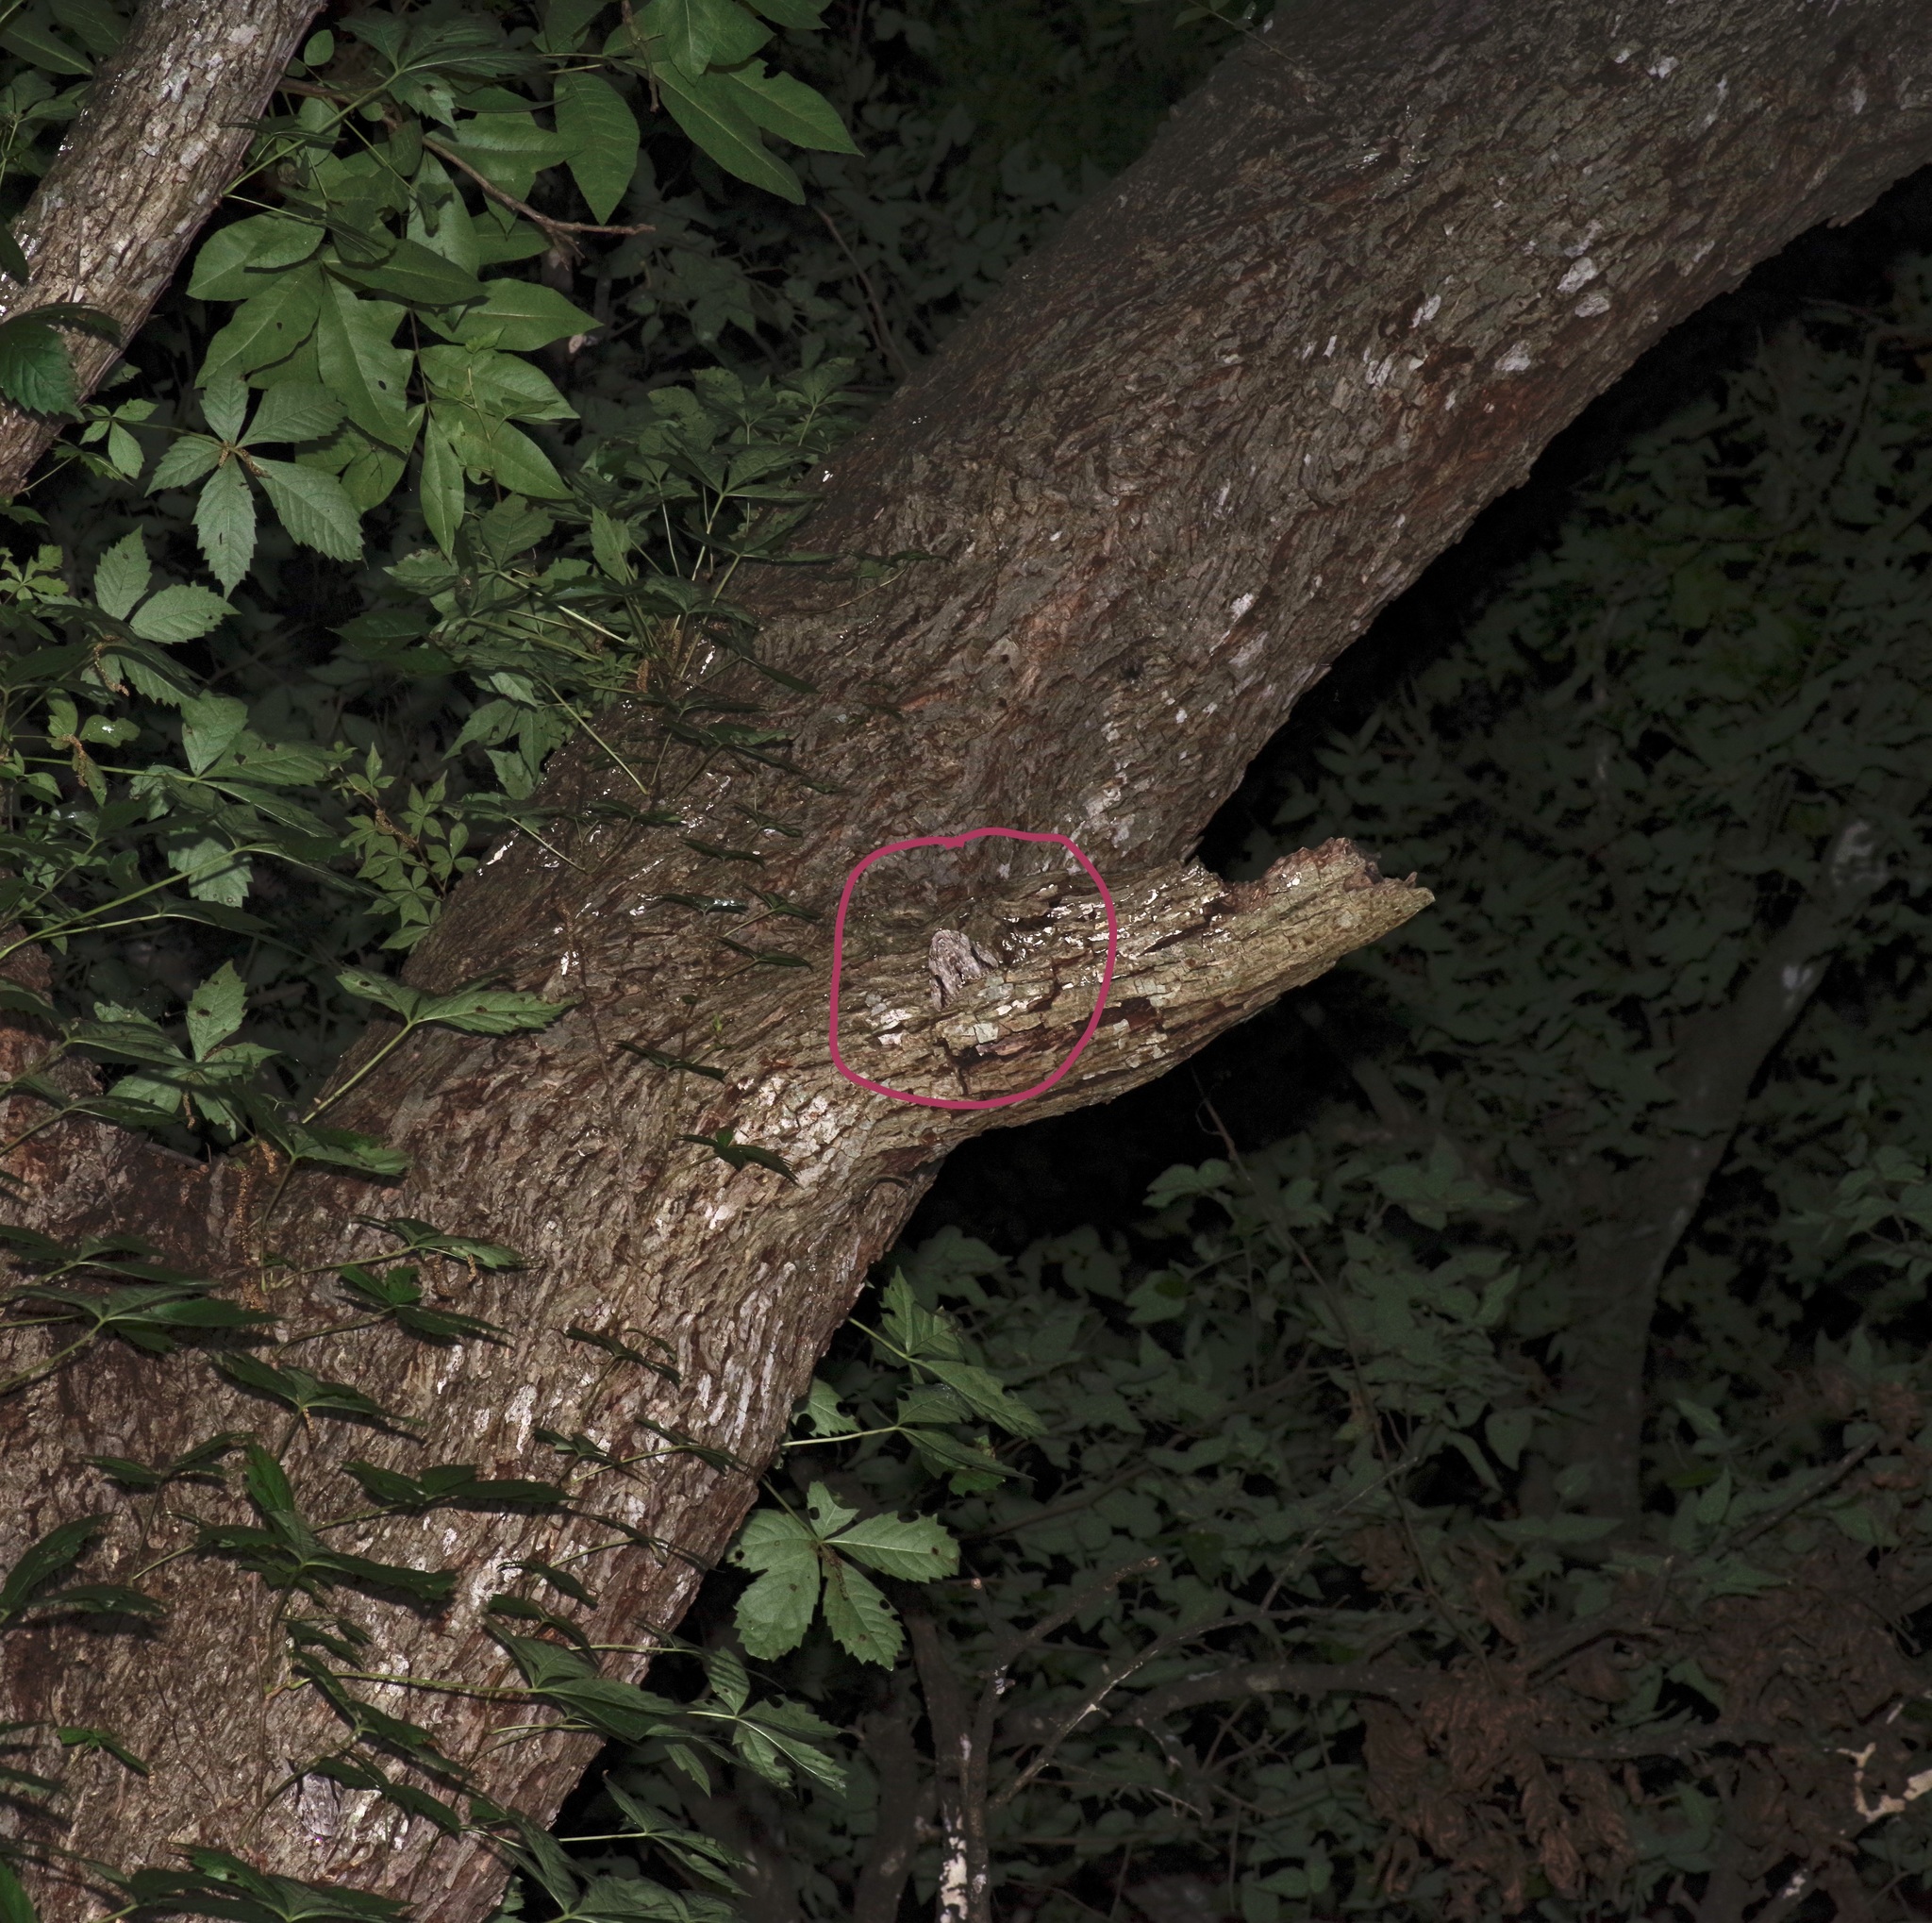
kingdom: Animalia
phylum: Arthropoda
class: Insecta
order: Lepidoptera
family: Erebidae
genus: Catocala
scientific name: Catocala maestosa
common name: Sad underwing
